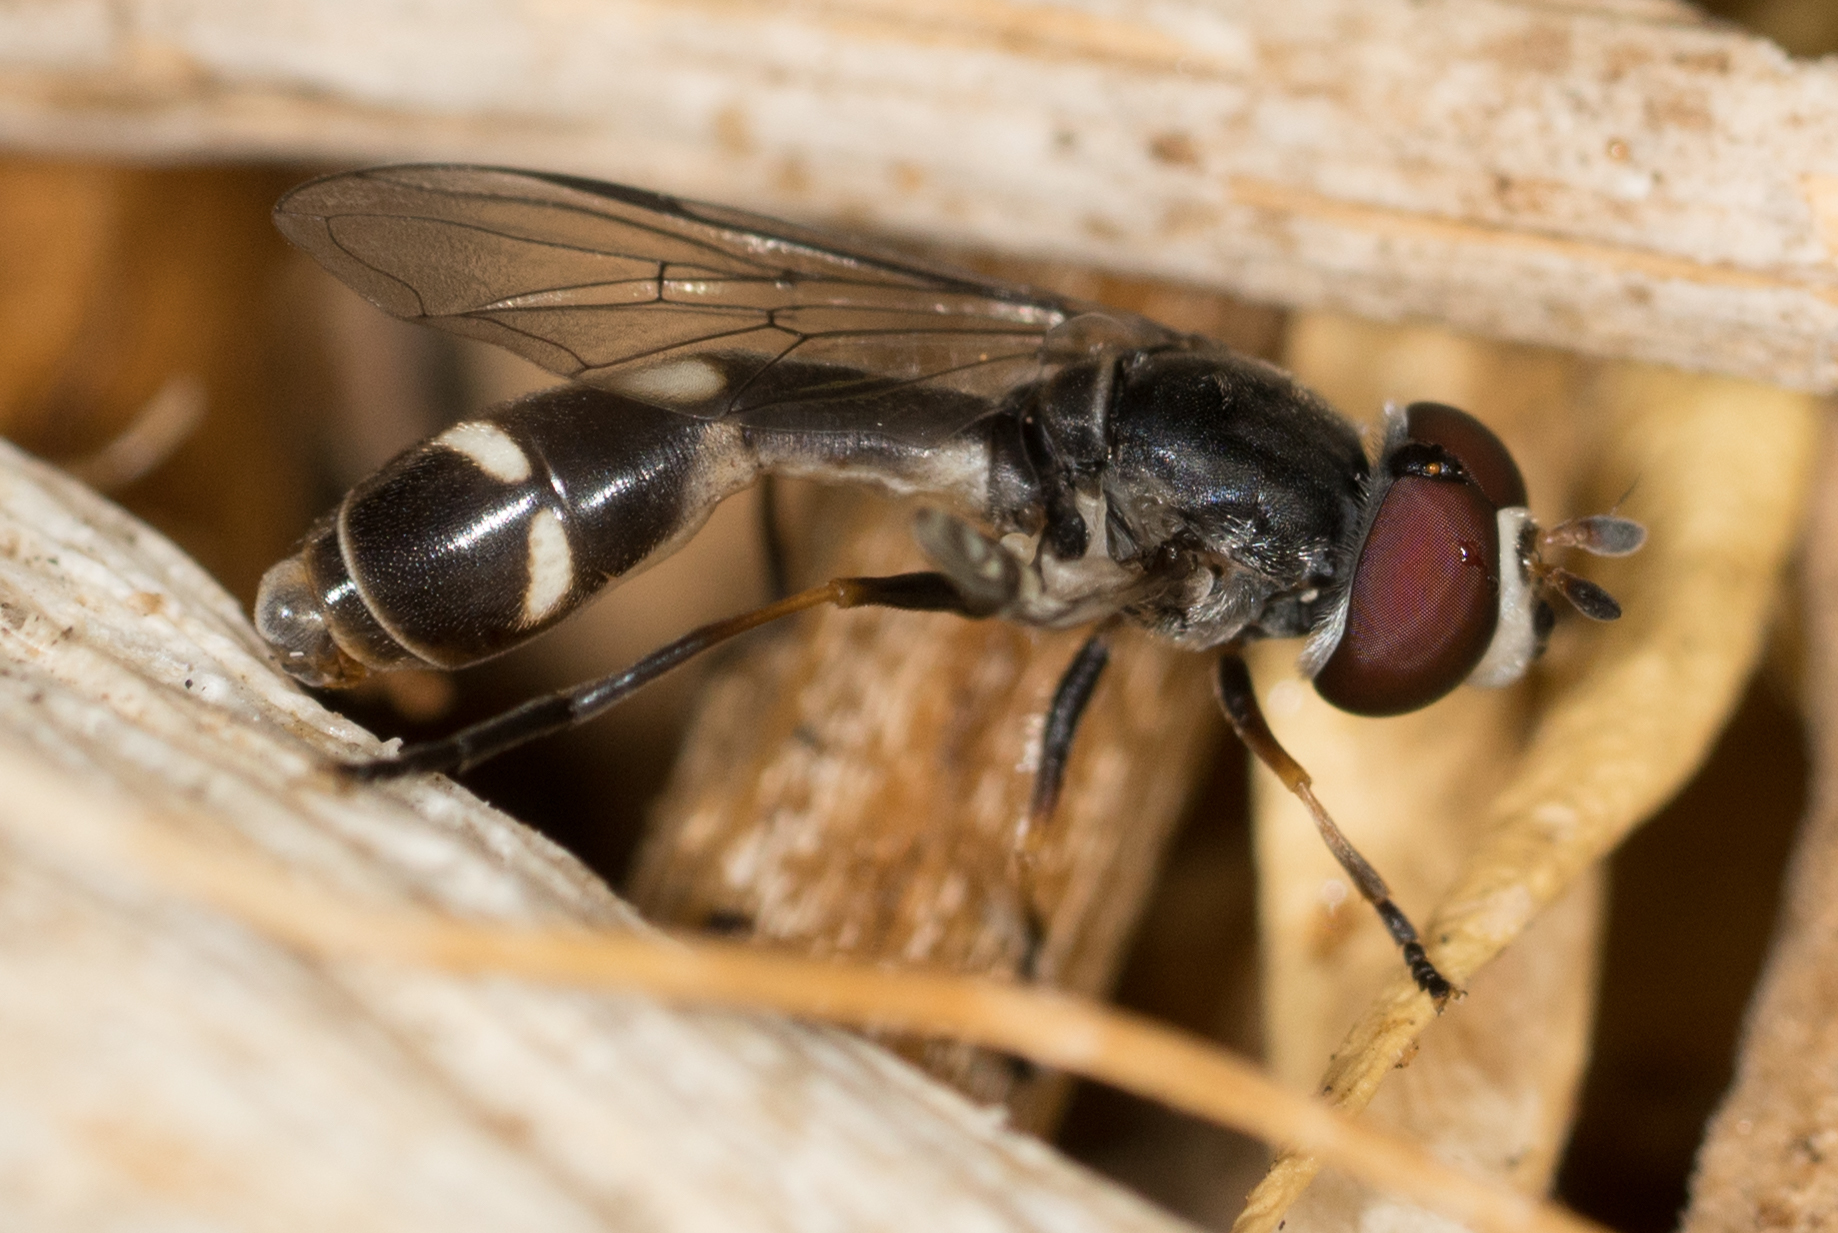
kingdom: Animalia
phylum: Arthropoda
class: Insecta
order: Diptera
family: Syrphidae
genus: Dioprosopa
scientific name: Dioprosopa clavatus
